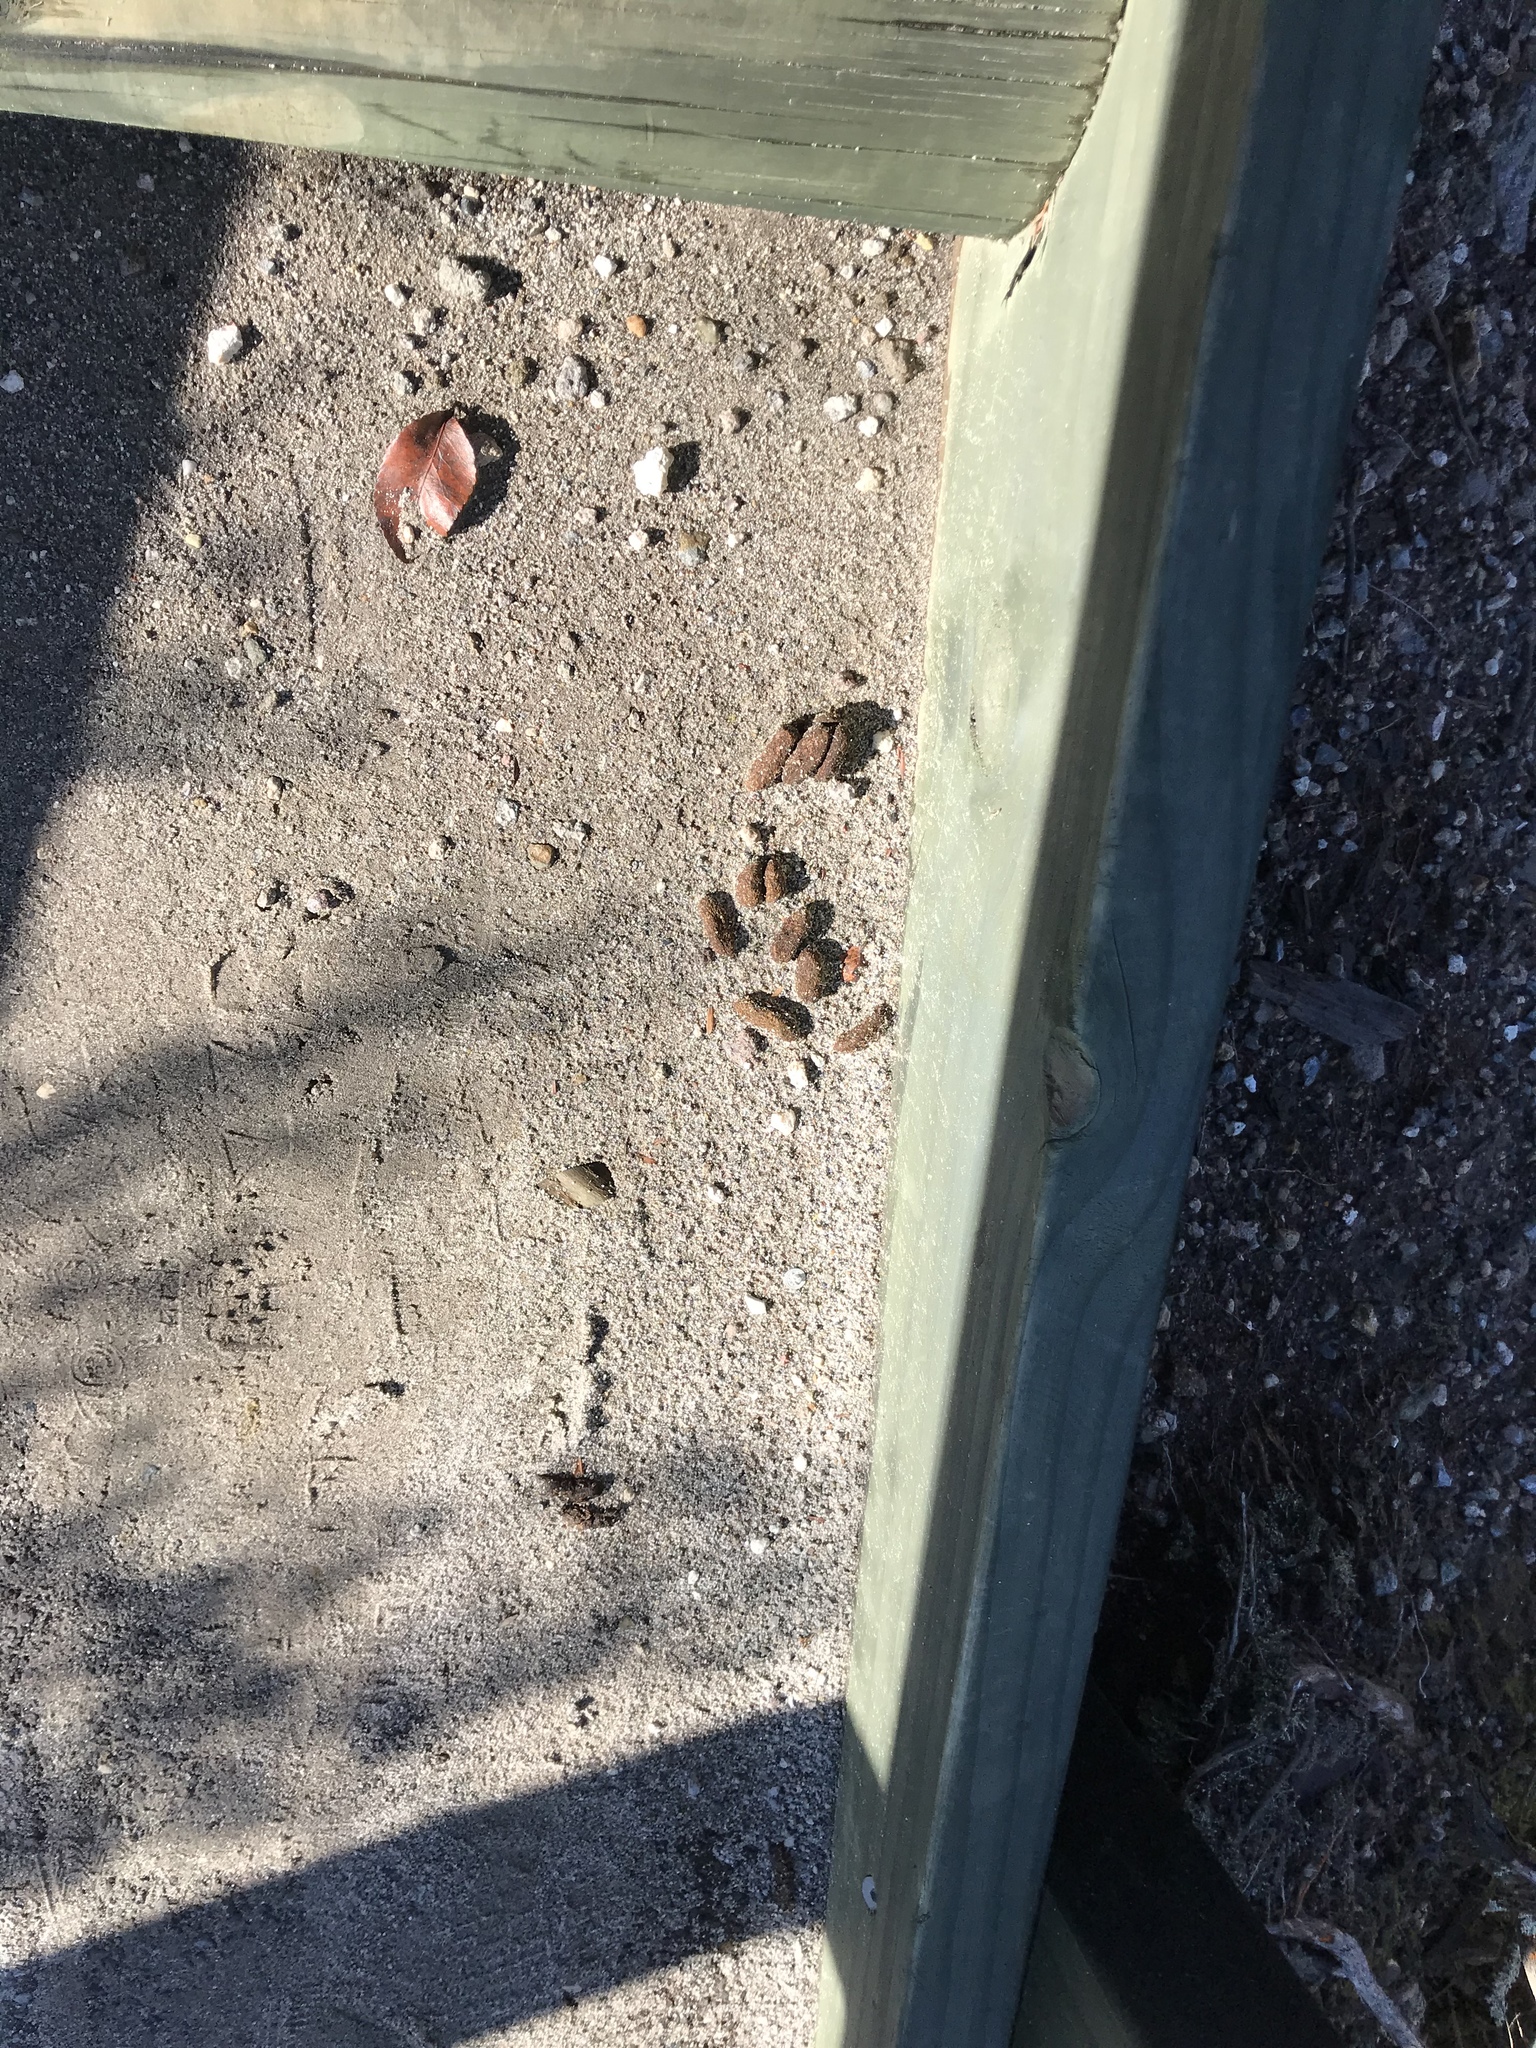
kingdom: Animalia
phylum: Chordata
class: Mammalia
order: Diprotodontia
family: Phalangeridae
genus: Trichosurus
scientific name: Trichosurus vulpecula
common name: Common brushtail
